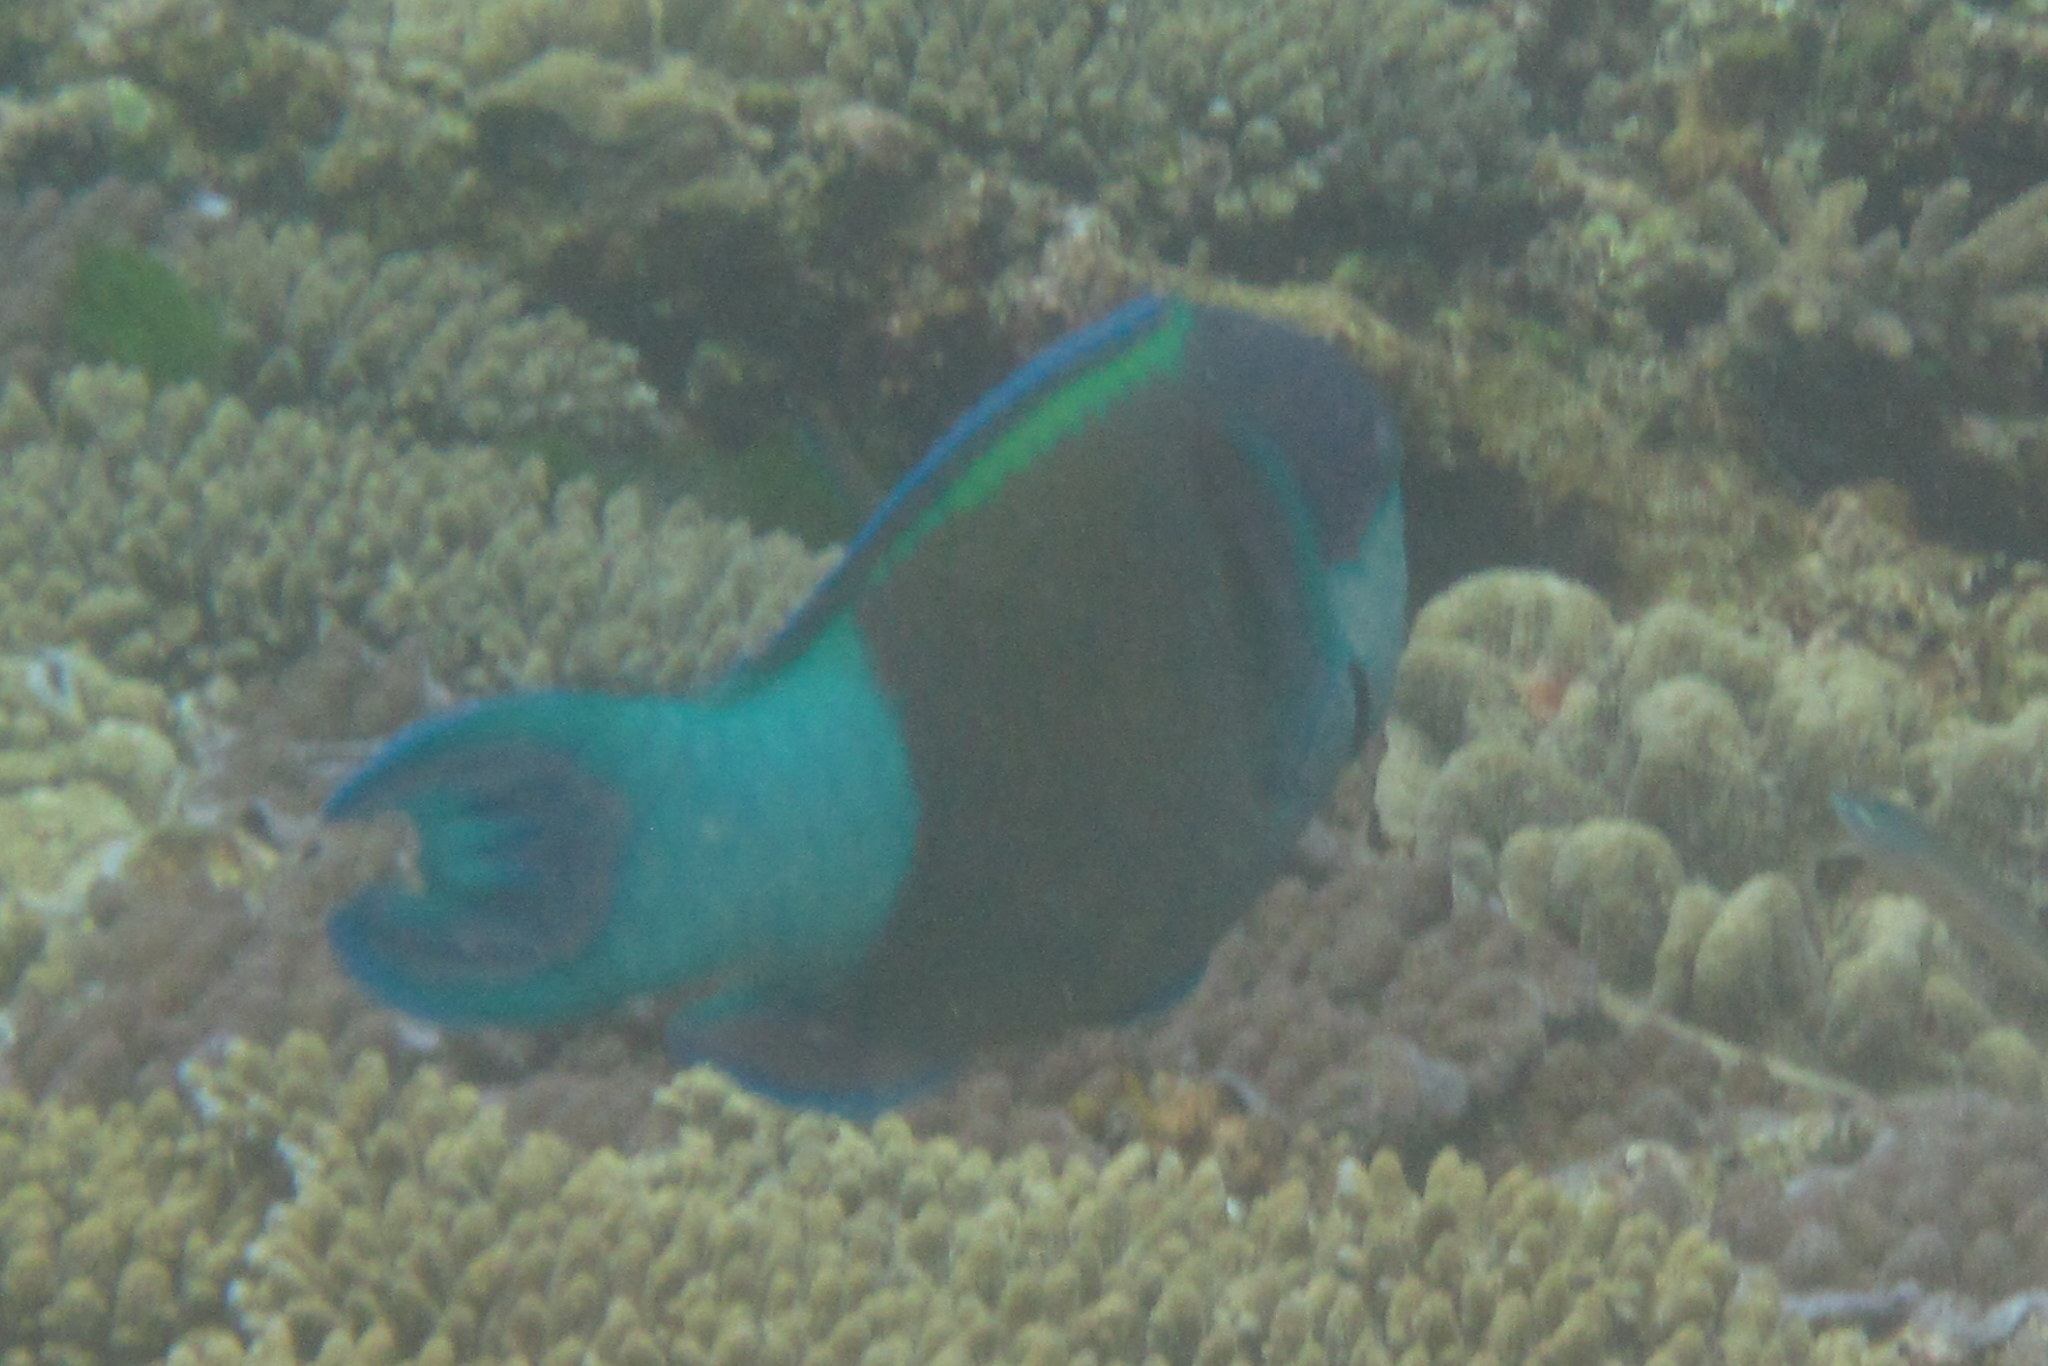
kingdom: Animalia
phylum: Chordata
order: Perciformes
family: Scaridae
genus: Scarus
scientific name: Scarus frenatus
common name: Bridled parrotfish
